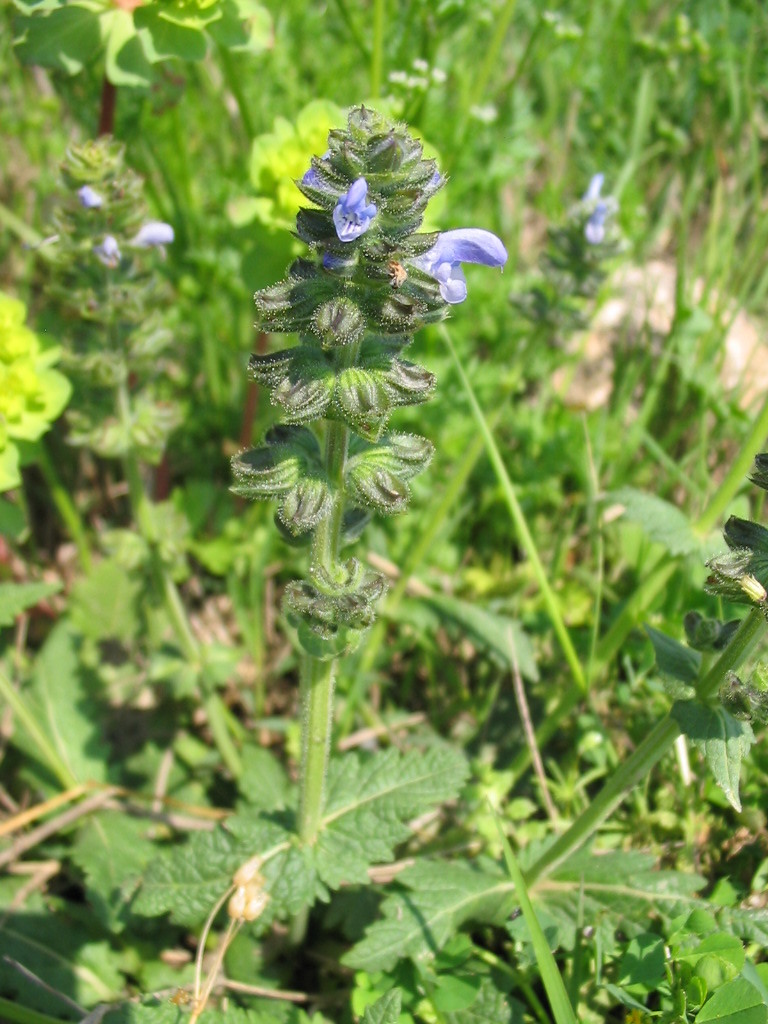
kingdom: Plantae
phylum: Tracheophyta
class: Magnoliopsida
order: Lamiales
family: Lamiaceae
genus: Salvia
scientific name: Salvia verbenaca
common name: Wild clary
